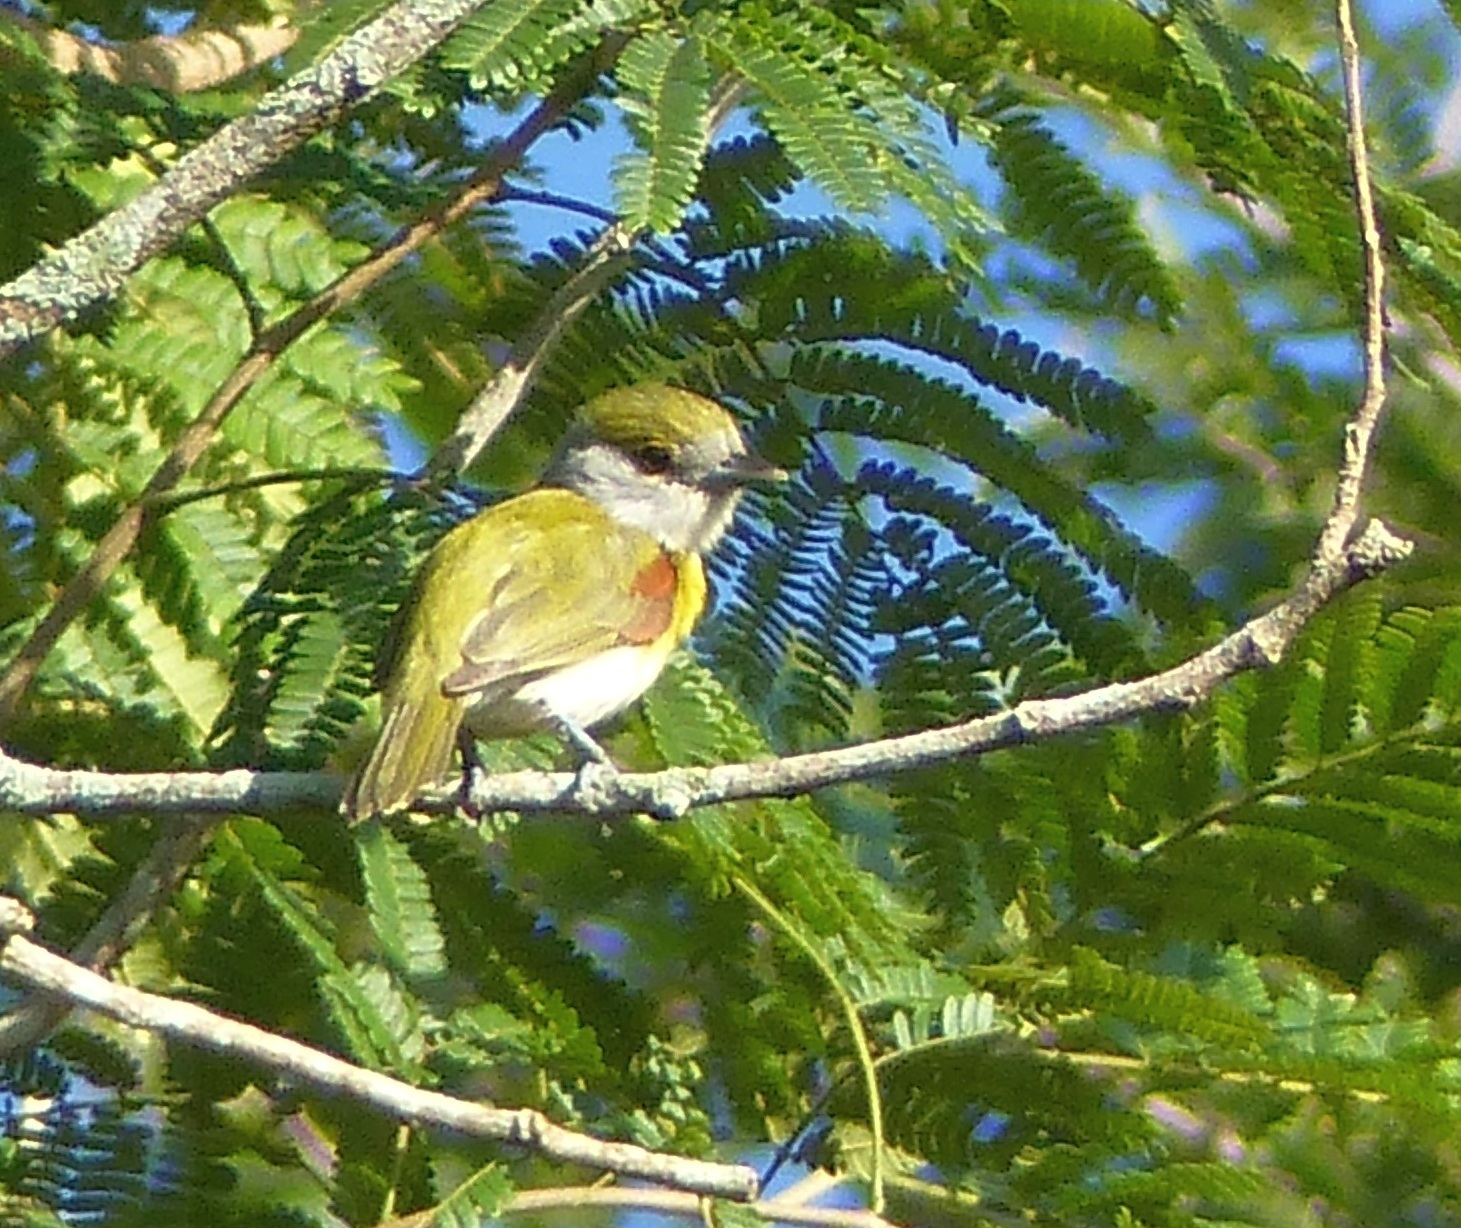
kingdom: Animalia
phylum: Chordata
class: Aves
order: Passeriformes
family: Cotingidae
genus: Pachyramphus
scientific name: Pachyramphus viridis
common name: Green-backed becard
